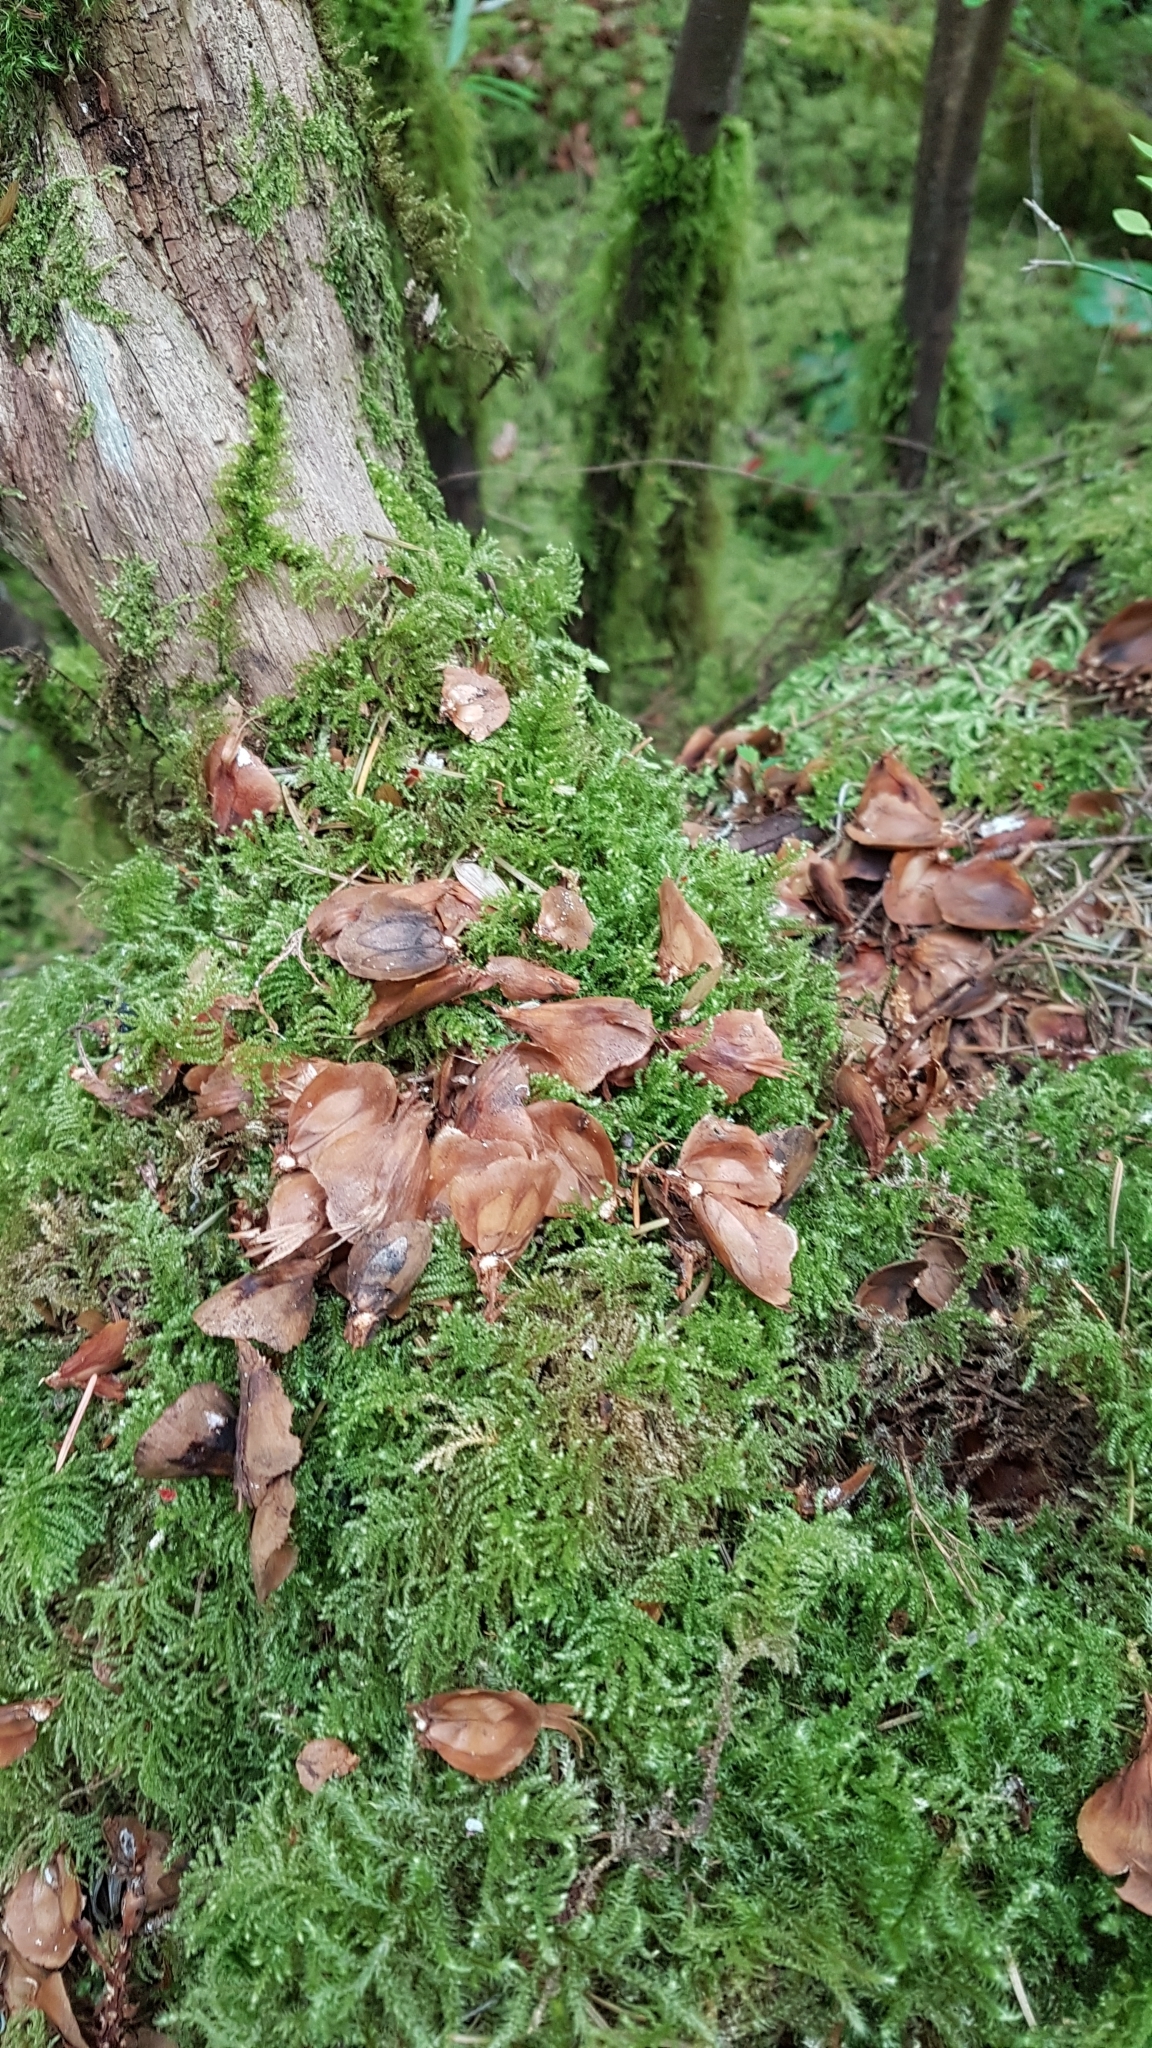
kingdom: Animalia
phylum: Chordata
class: Mammalia
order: Rodentia
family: Sciuridae
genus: Tamiasciurus
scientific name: Tamiasciurus hudsonicus
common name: Red squirrel
